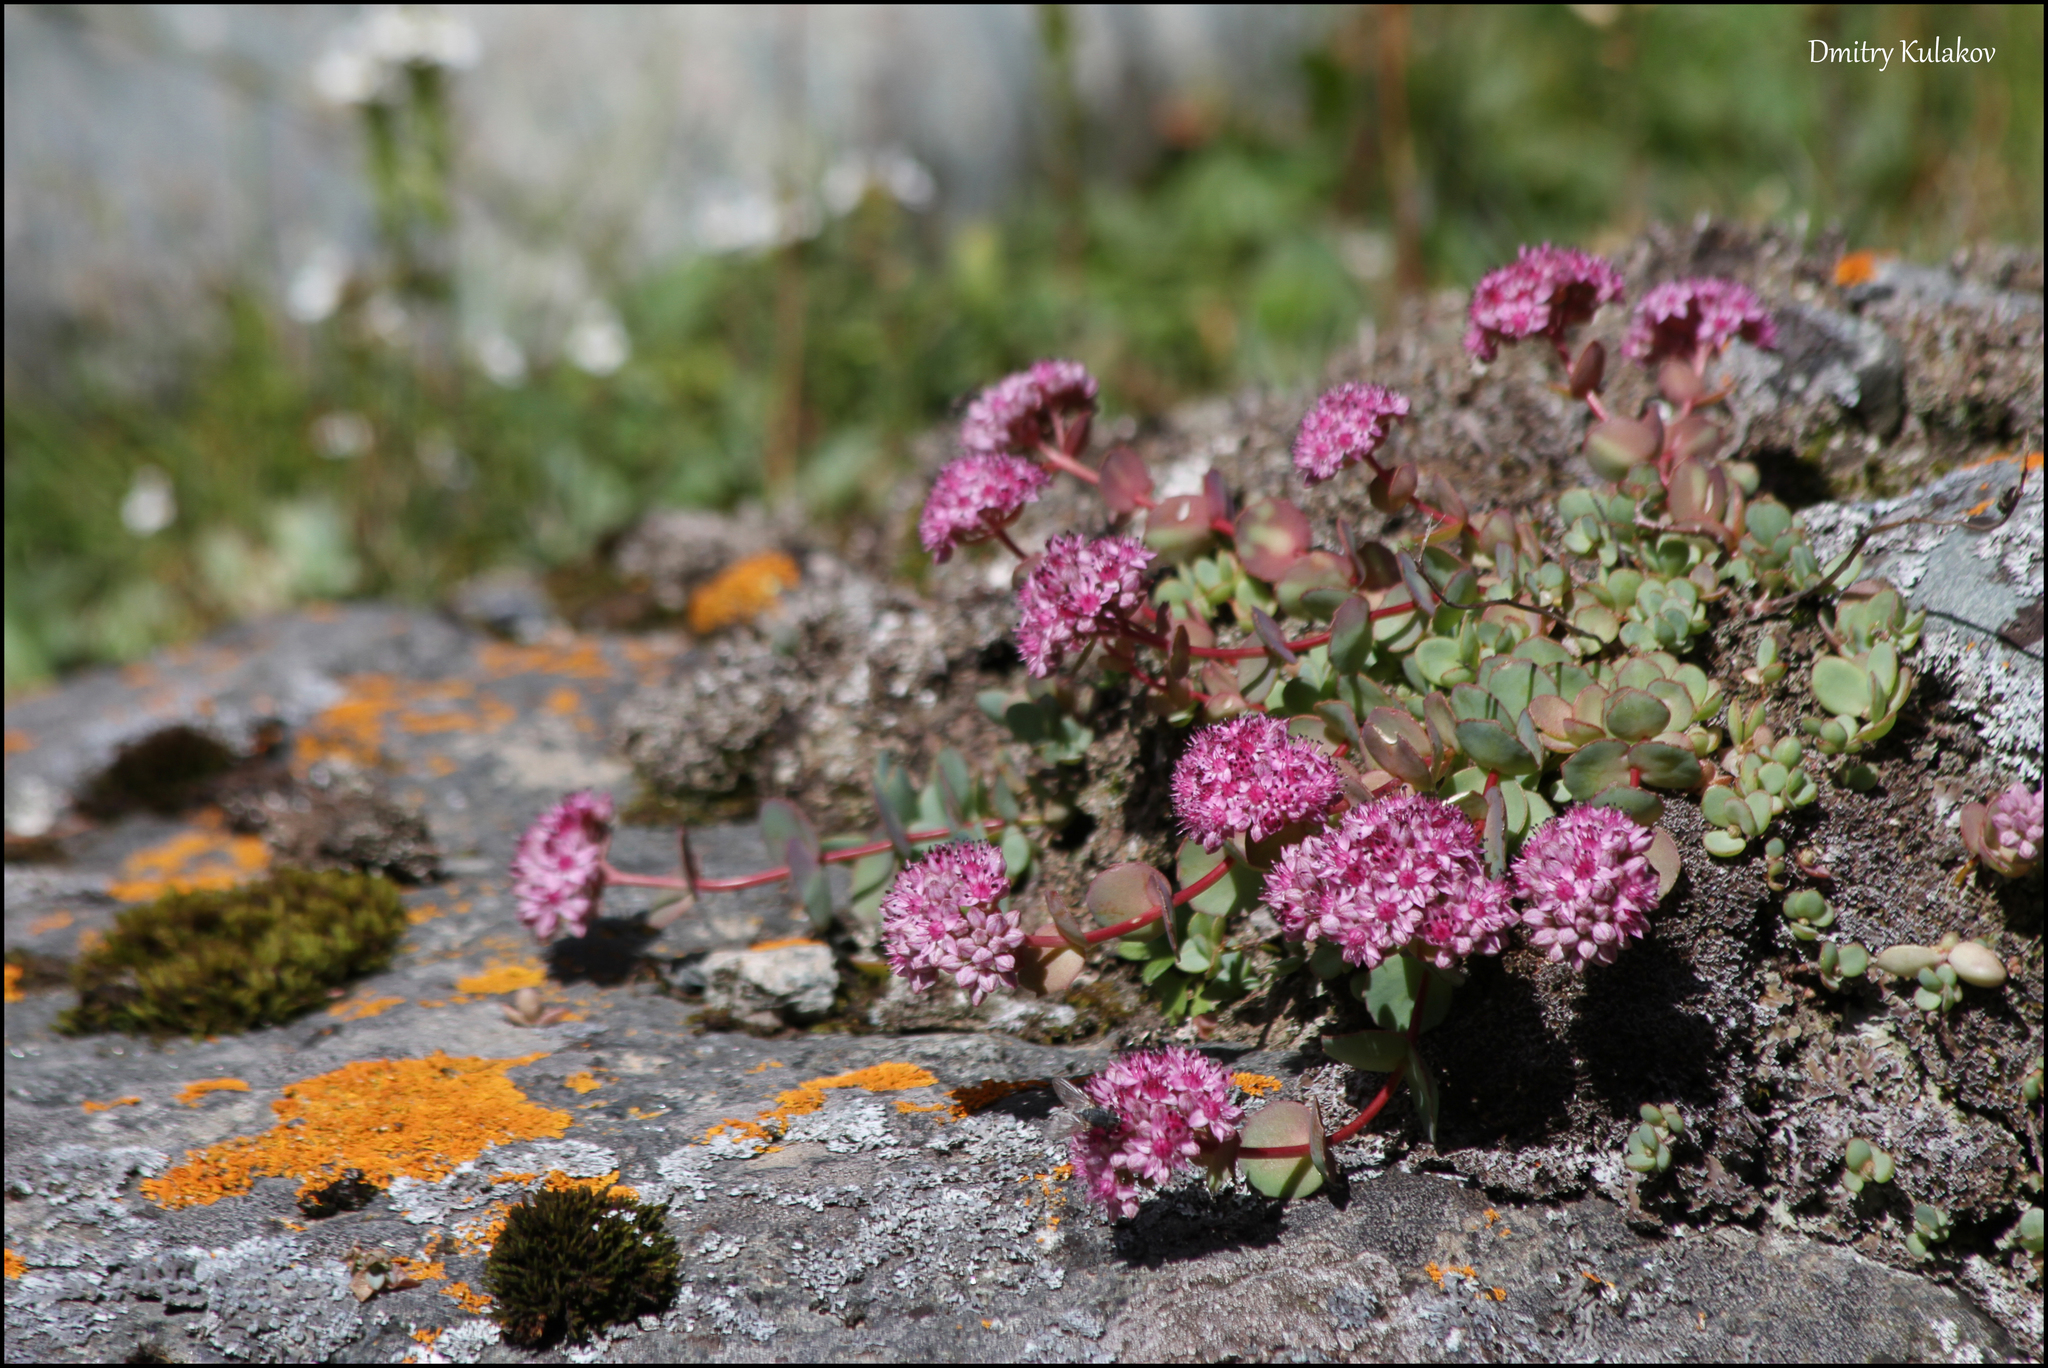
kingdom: Plantae
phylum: Tracheophyta
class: Magnoliopsida
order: Saxifragales
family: Crassulaceae
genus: Hylotelephium
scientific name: Hylotelephium ewersii
